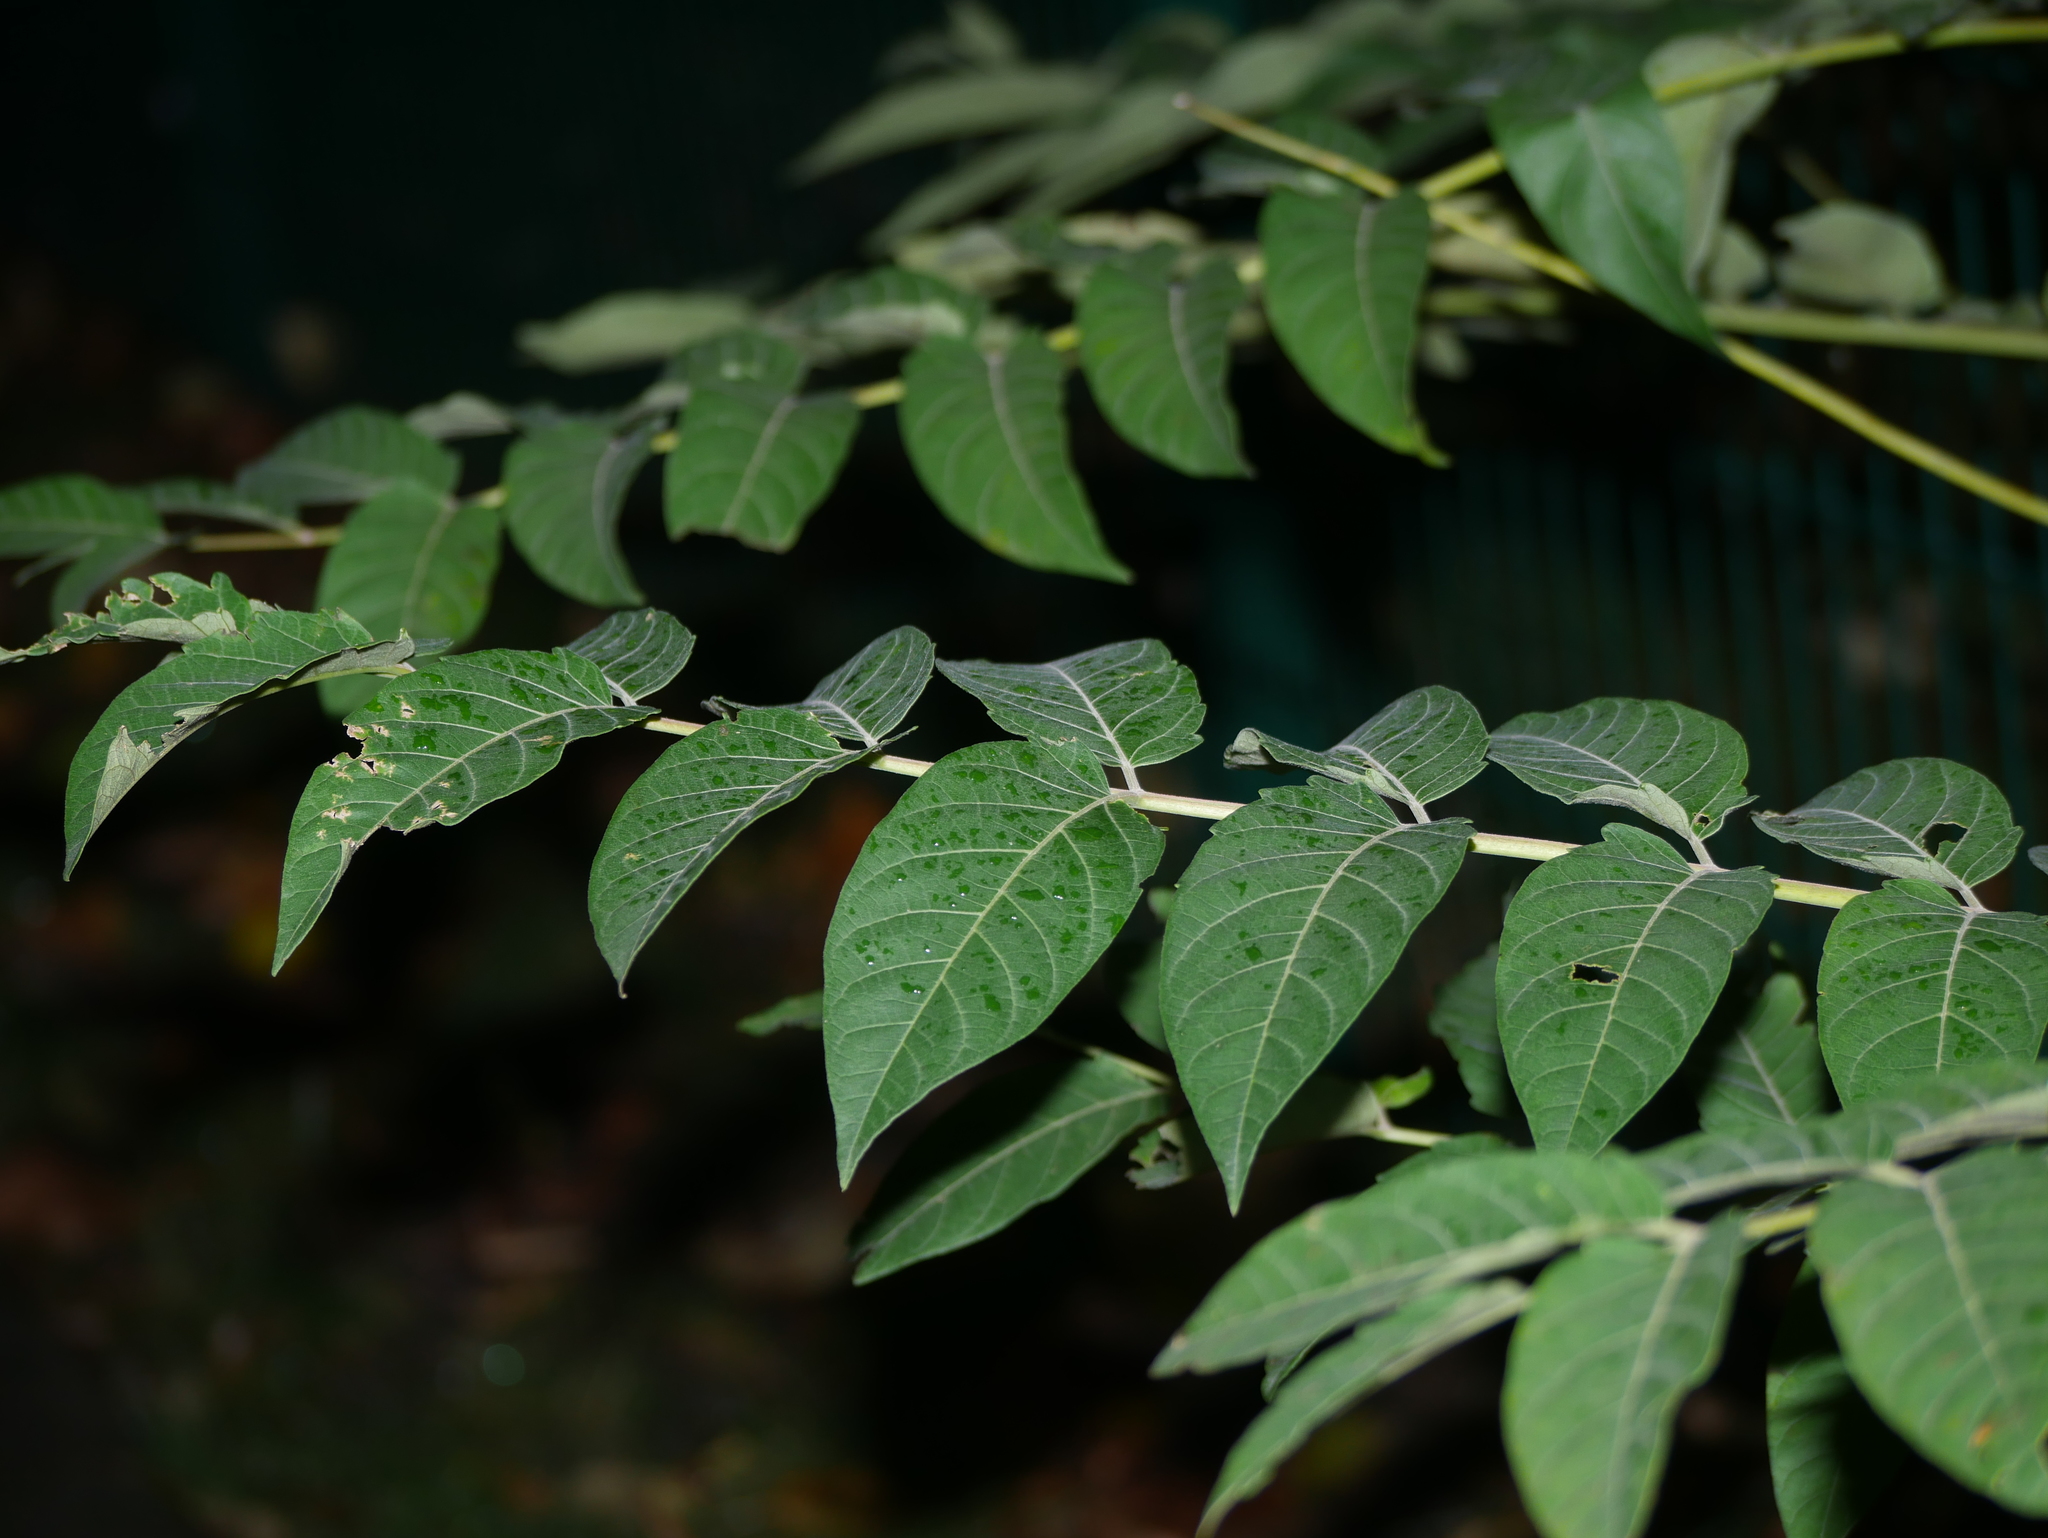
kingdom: Plantae
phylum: Tracheophyta
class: Magnoliopsida
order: Sapindales
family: Simaroubaceae
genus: Ailanthus
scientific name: Ailanthus altissima
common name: Tree-of-heaven
